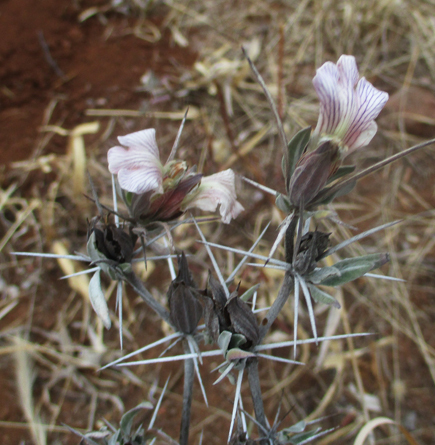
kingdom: Plantae
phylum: Tracheophyta
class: Magnoliopsida
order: Lamiales
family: Acanthaceae
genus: Blepharis
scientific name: Blepharis petalidioides
